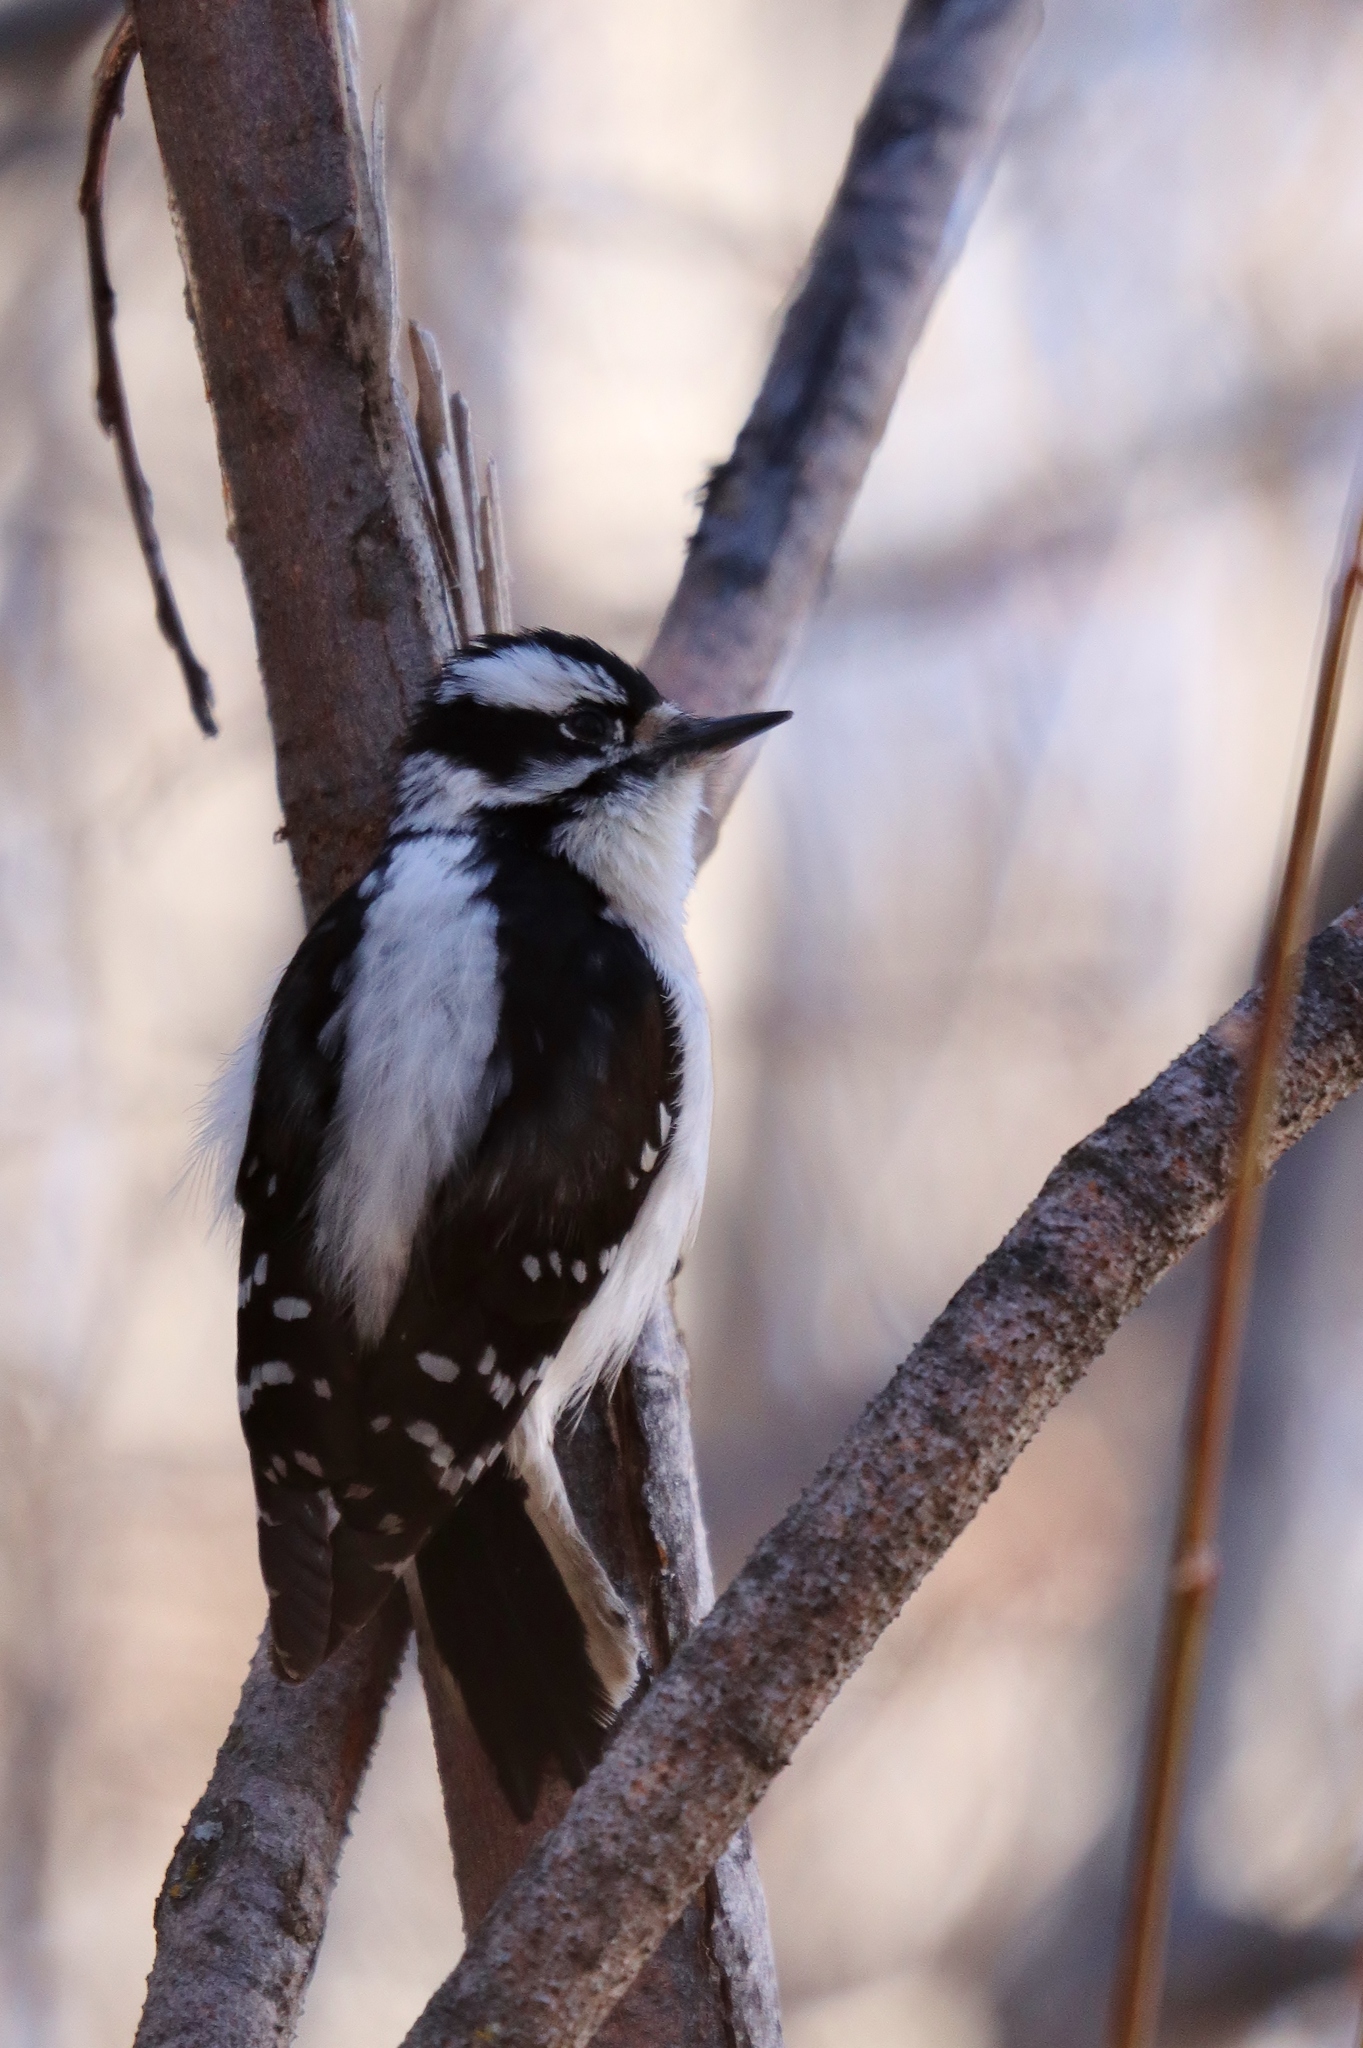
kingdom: Animalia
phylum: Chordata
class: Aves
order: Piciformes
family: Picidae
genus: Dryobates
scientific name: Dryobates pubescens
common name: Downy woodpecker
